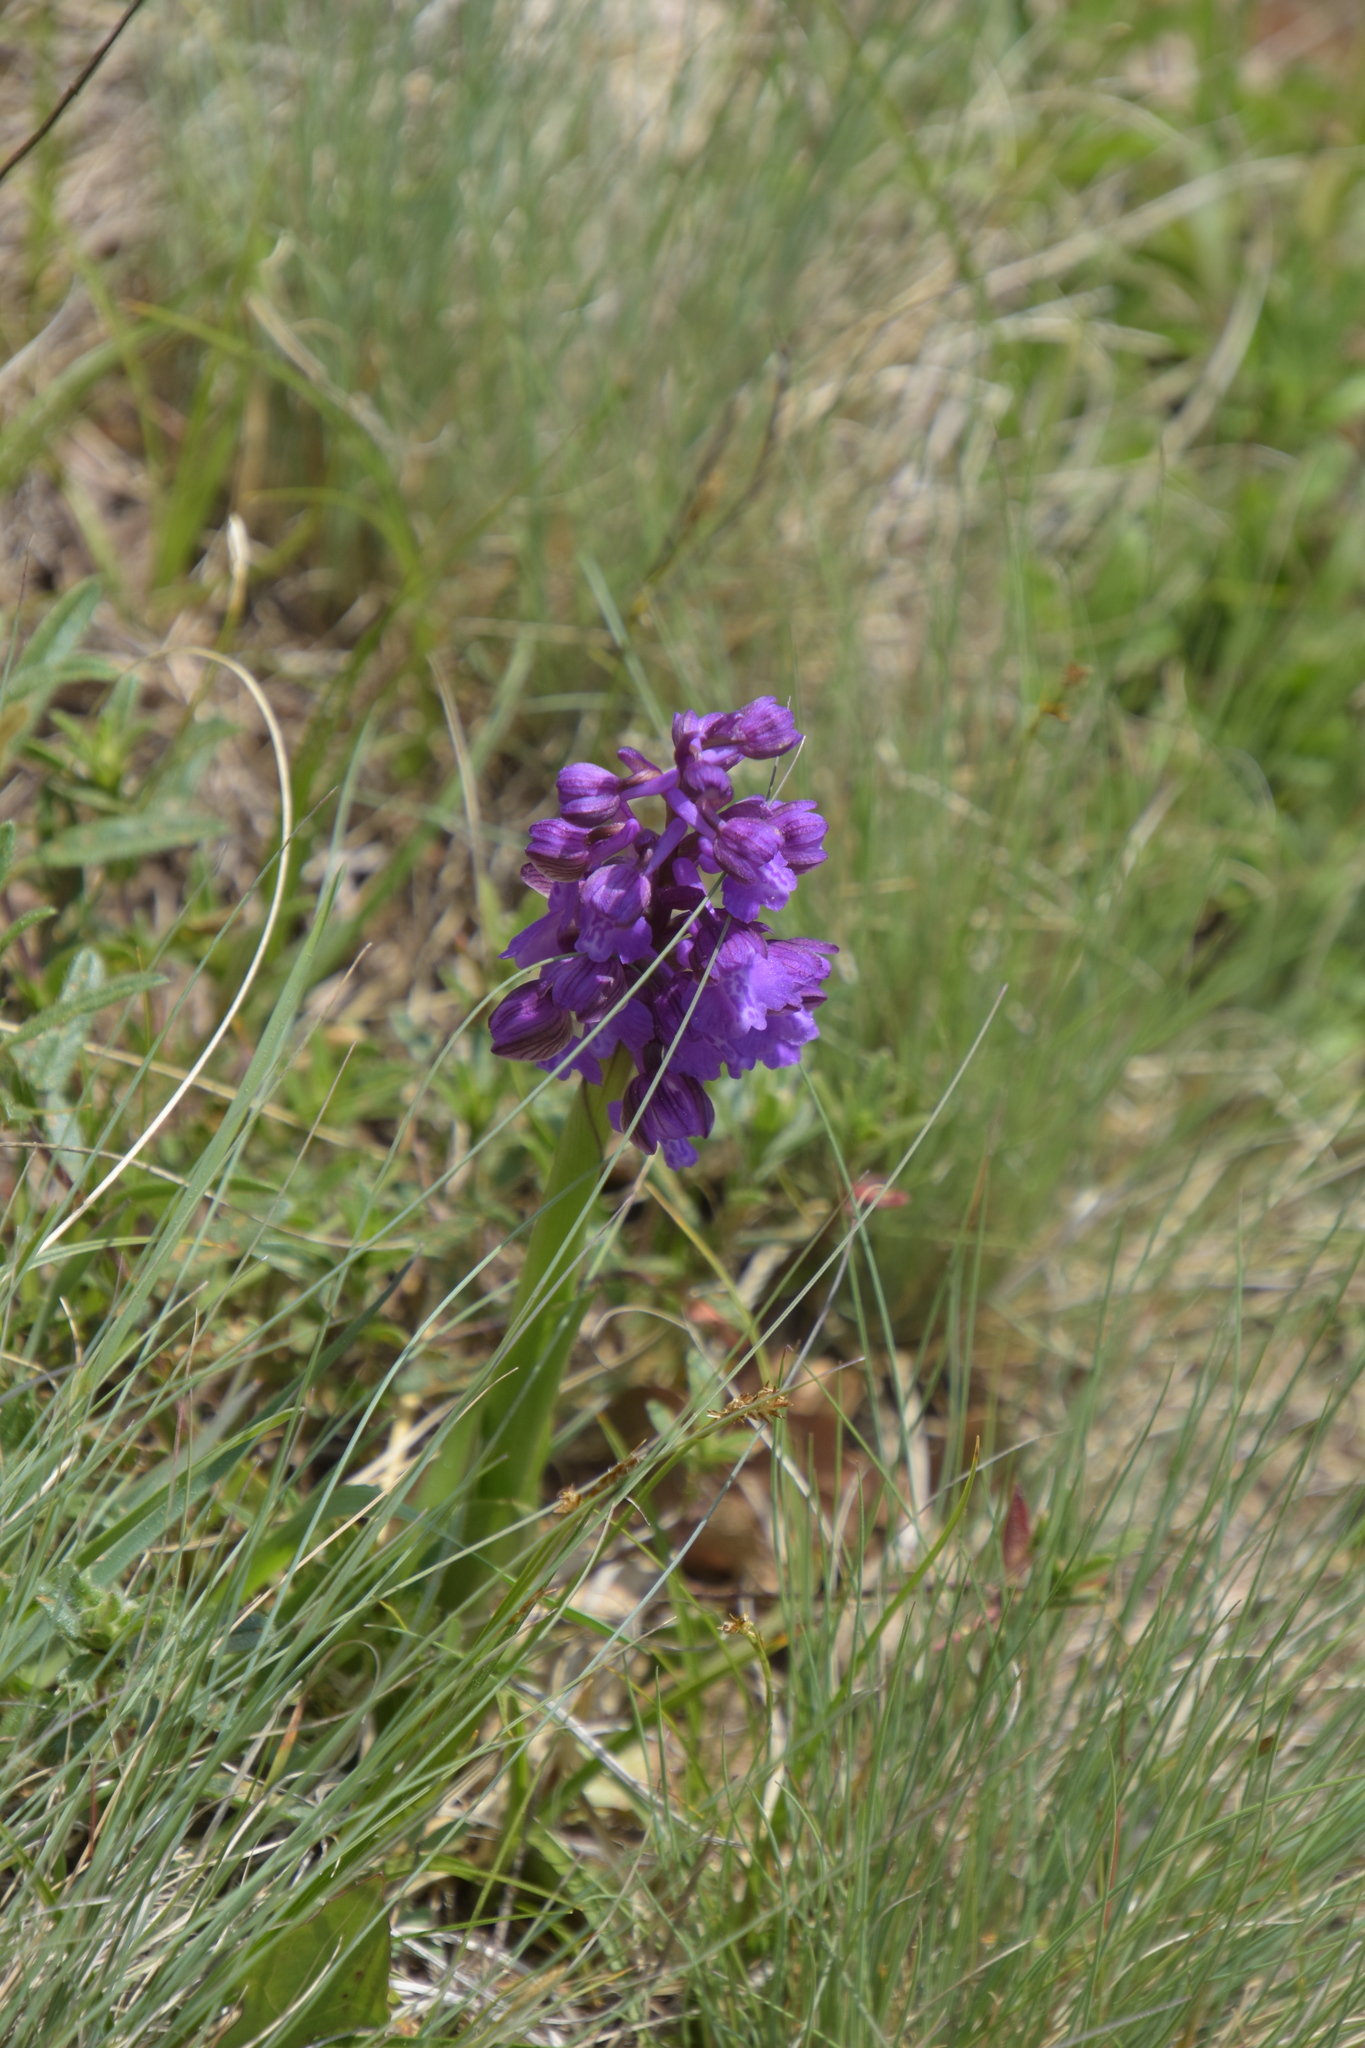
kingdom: Plantae
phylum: Tracheophyta
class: Liliopsida
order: Asparagales
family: Orchidaceae
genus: Anacamptis
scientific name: Anacamptis morio
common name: Green-winged orchid
